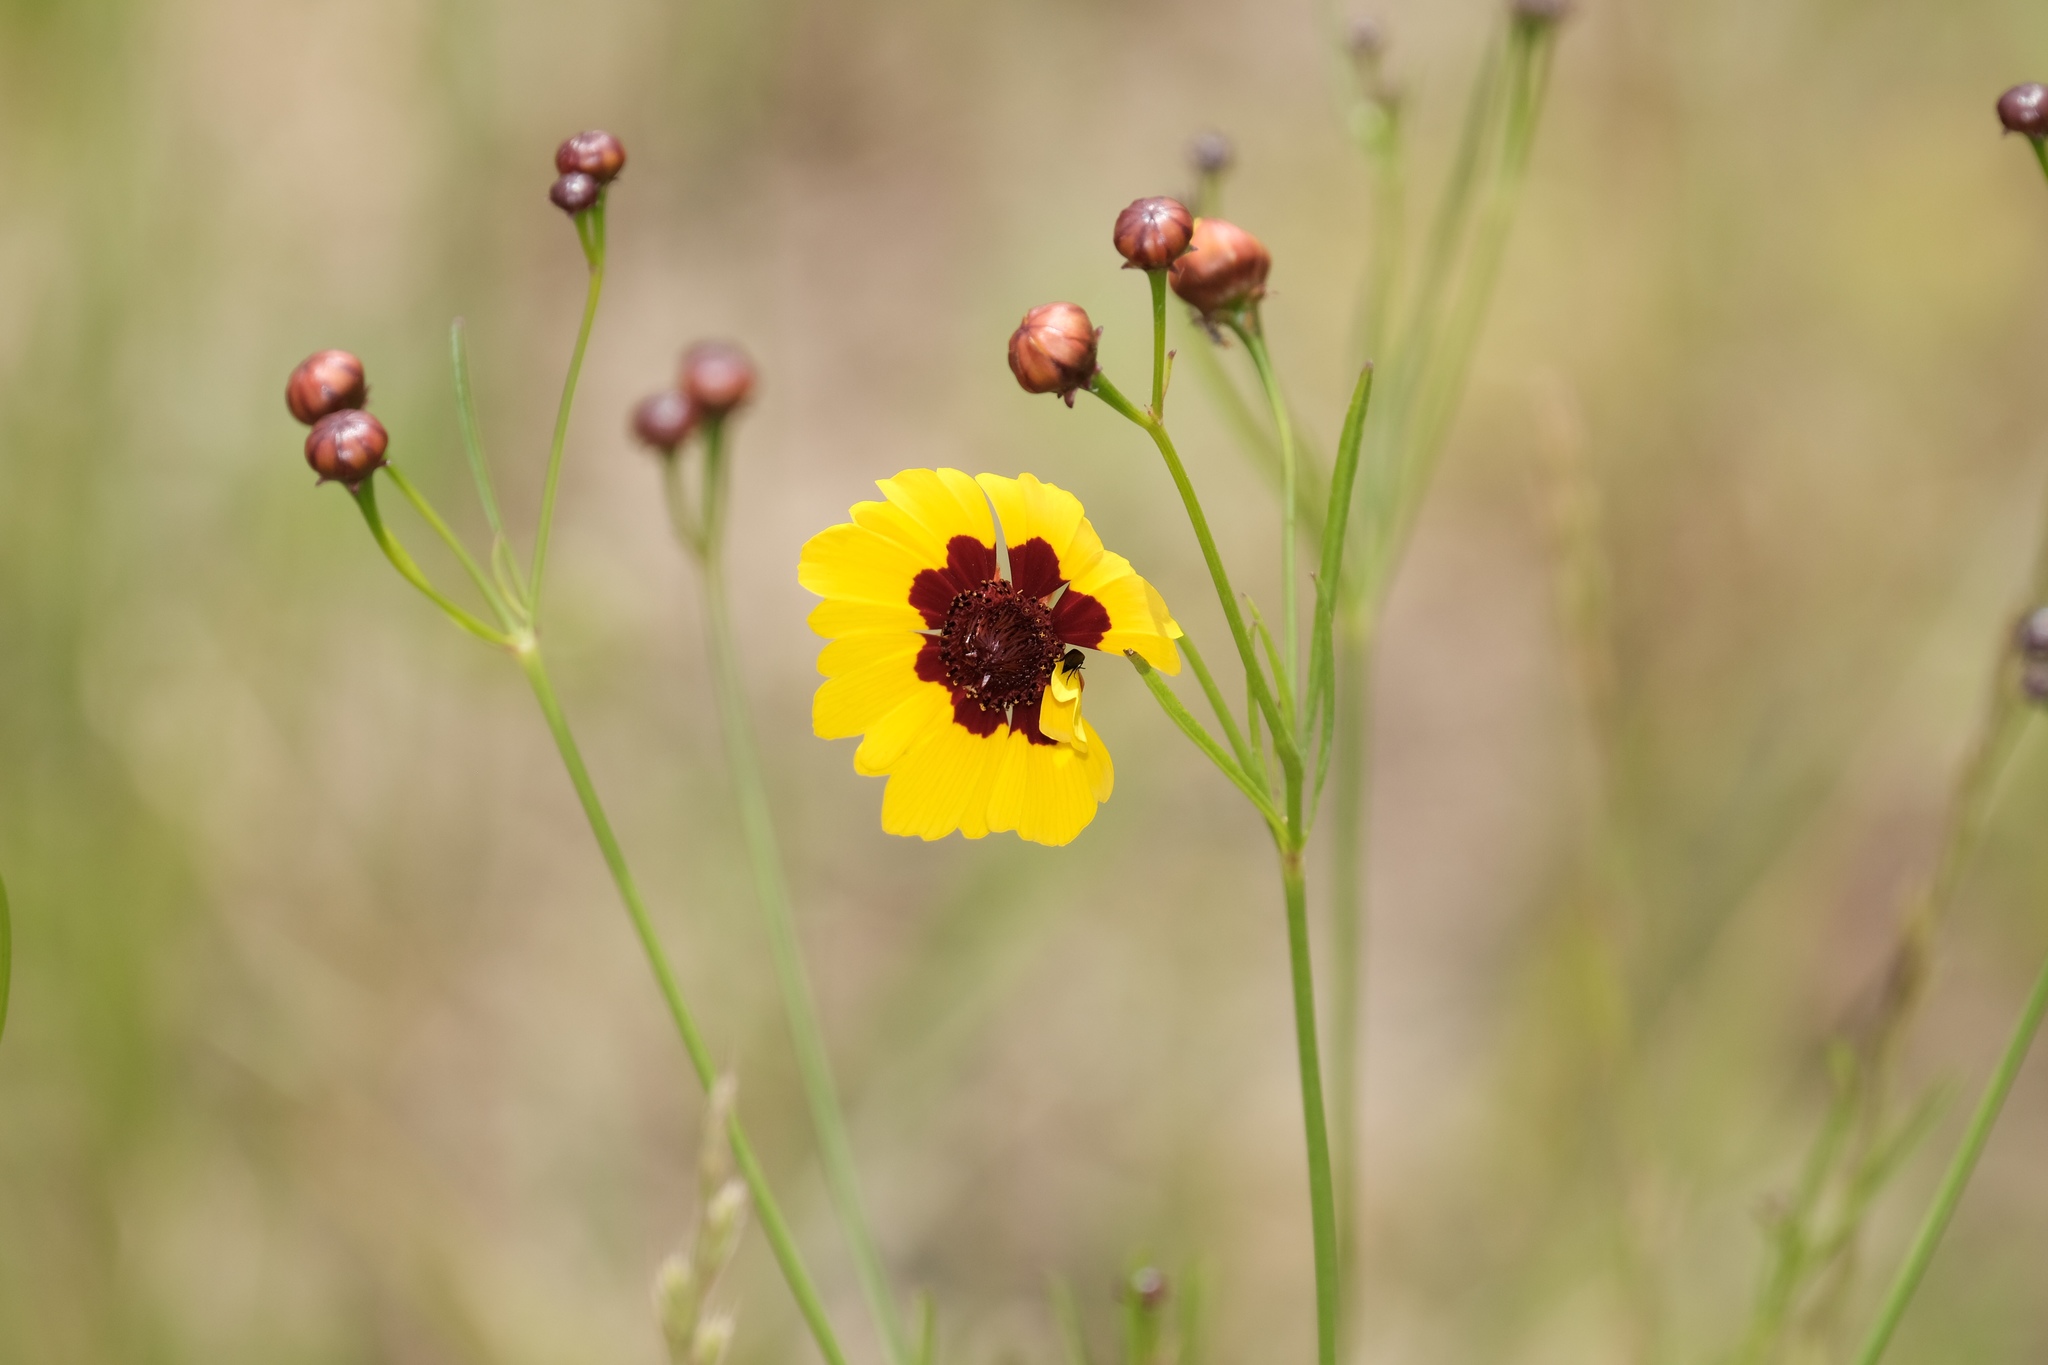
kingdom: Plantae
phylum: Tracheophyta
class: Magnoliopsida
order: Asterales
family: Asteraceae
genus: Coreopsis
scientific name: Coreopsis tinctoria
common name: Garden tickseed
